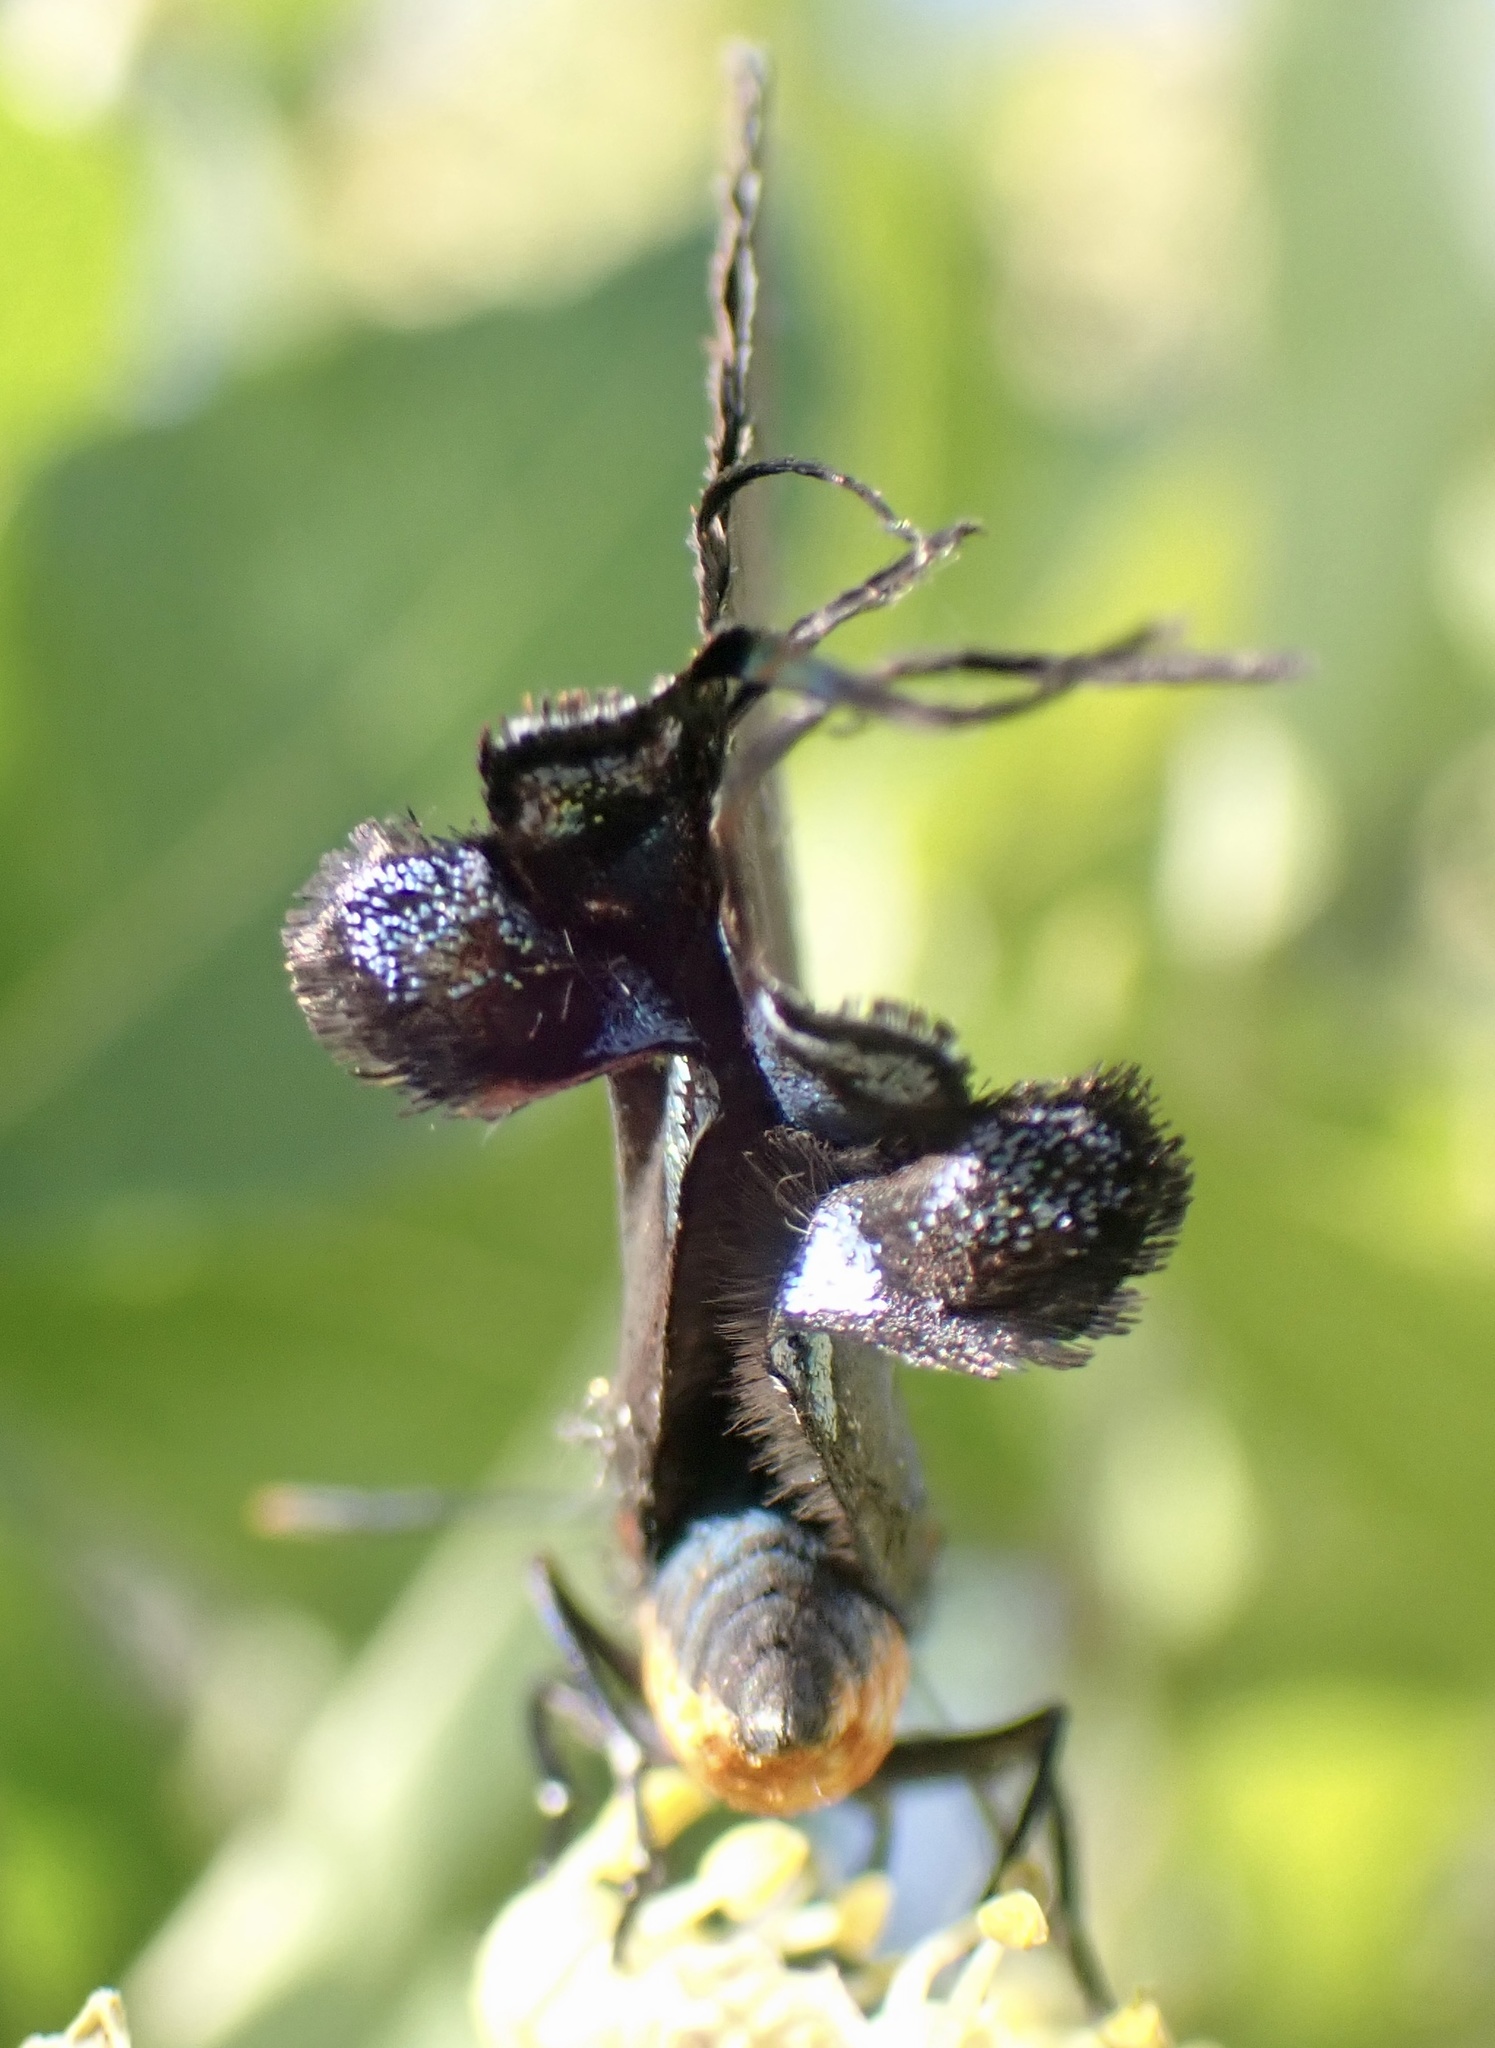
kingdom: Animalia
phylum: Arthropoda
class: Insecta
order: Lepidoptera
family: Lycaenidae
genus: Atlides
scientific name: Atlides halesus
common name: Great purple hairstreak
